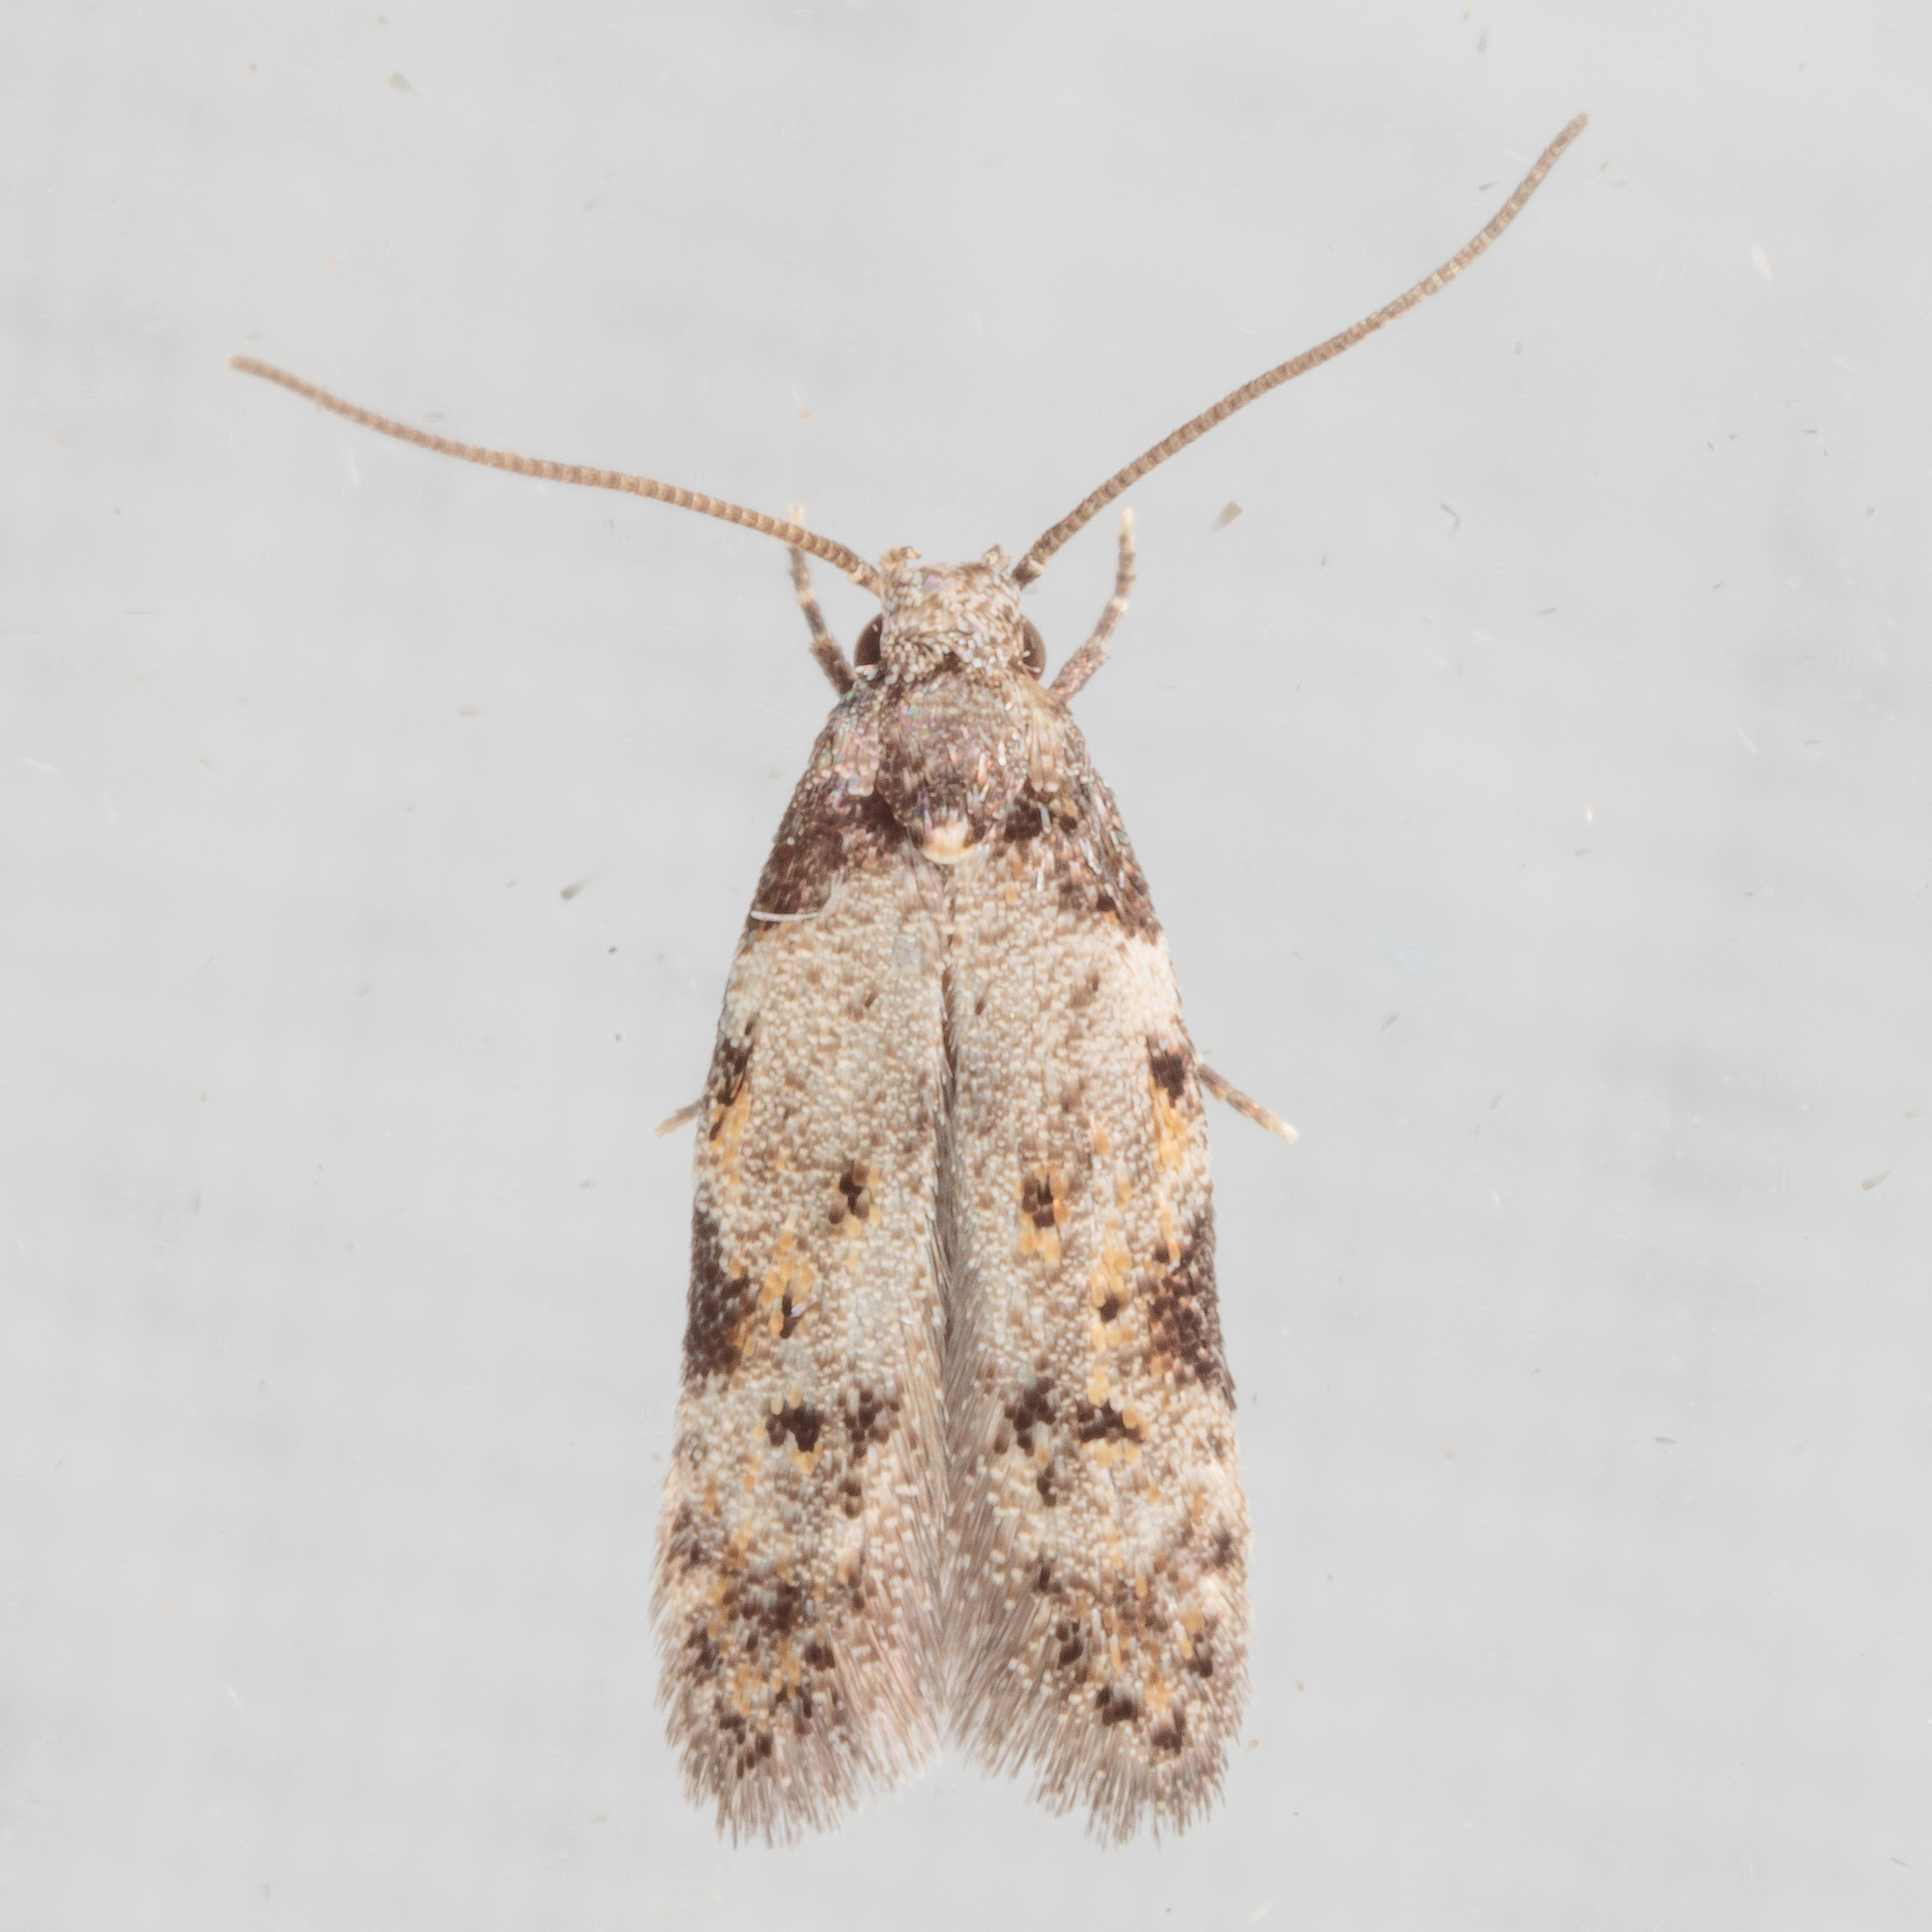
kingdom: Animalia
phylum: Arthropoda
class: Insecta
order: Lepidoptera
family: Autostichidae
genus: Taygete
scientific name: Taygete attributella
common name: Triangle-marked twirler moth
